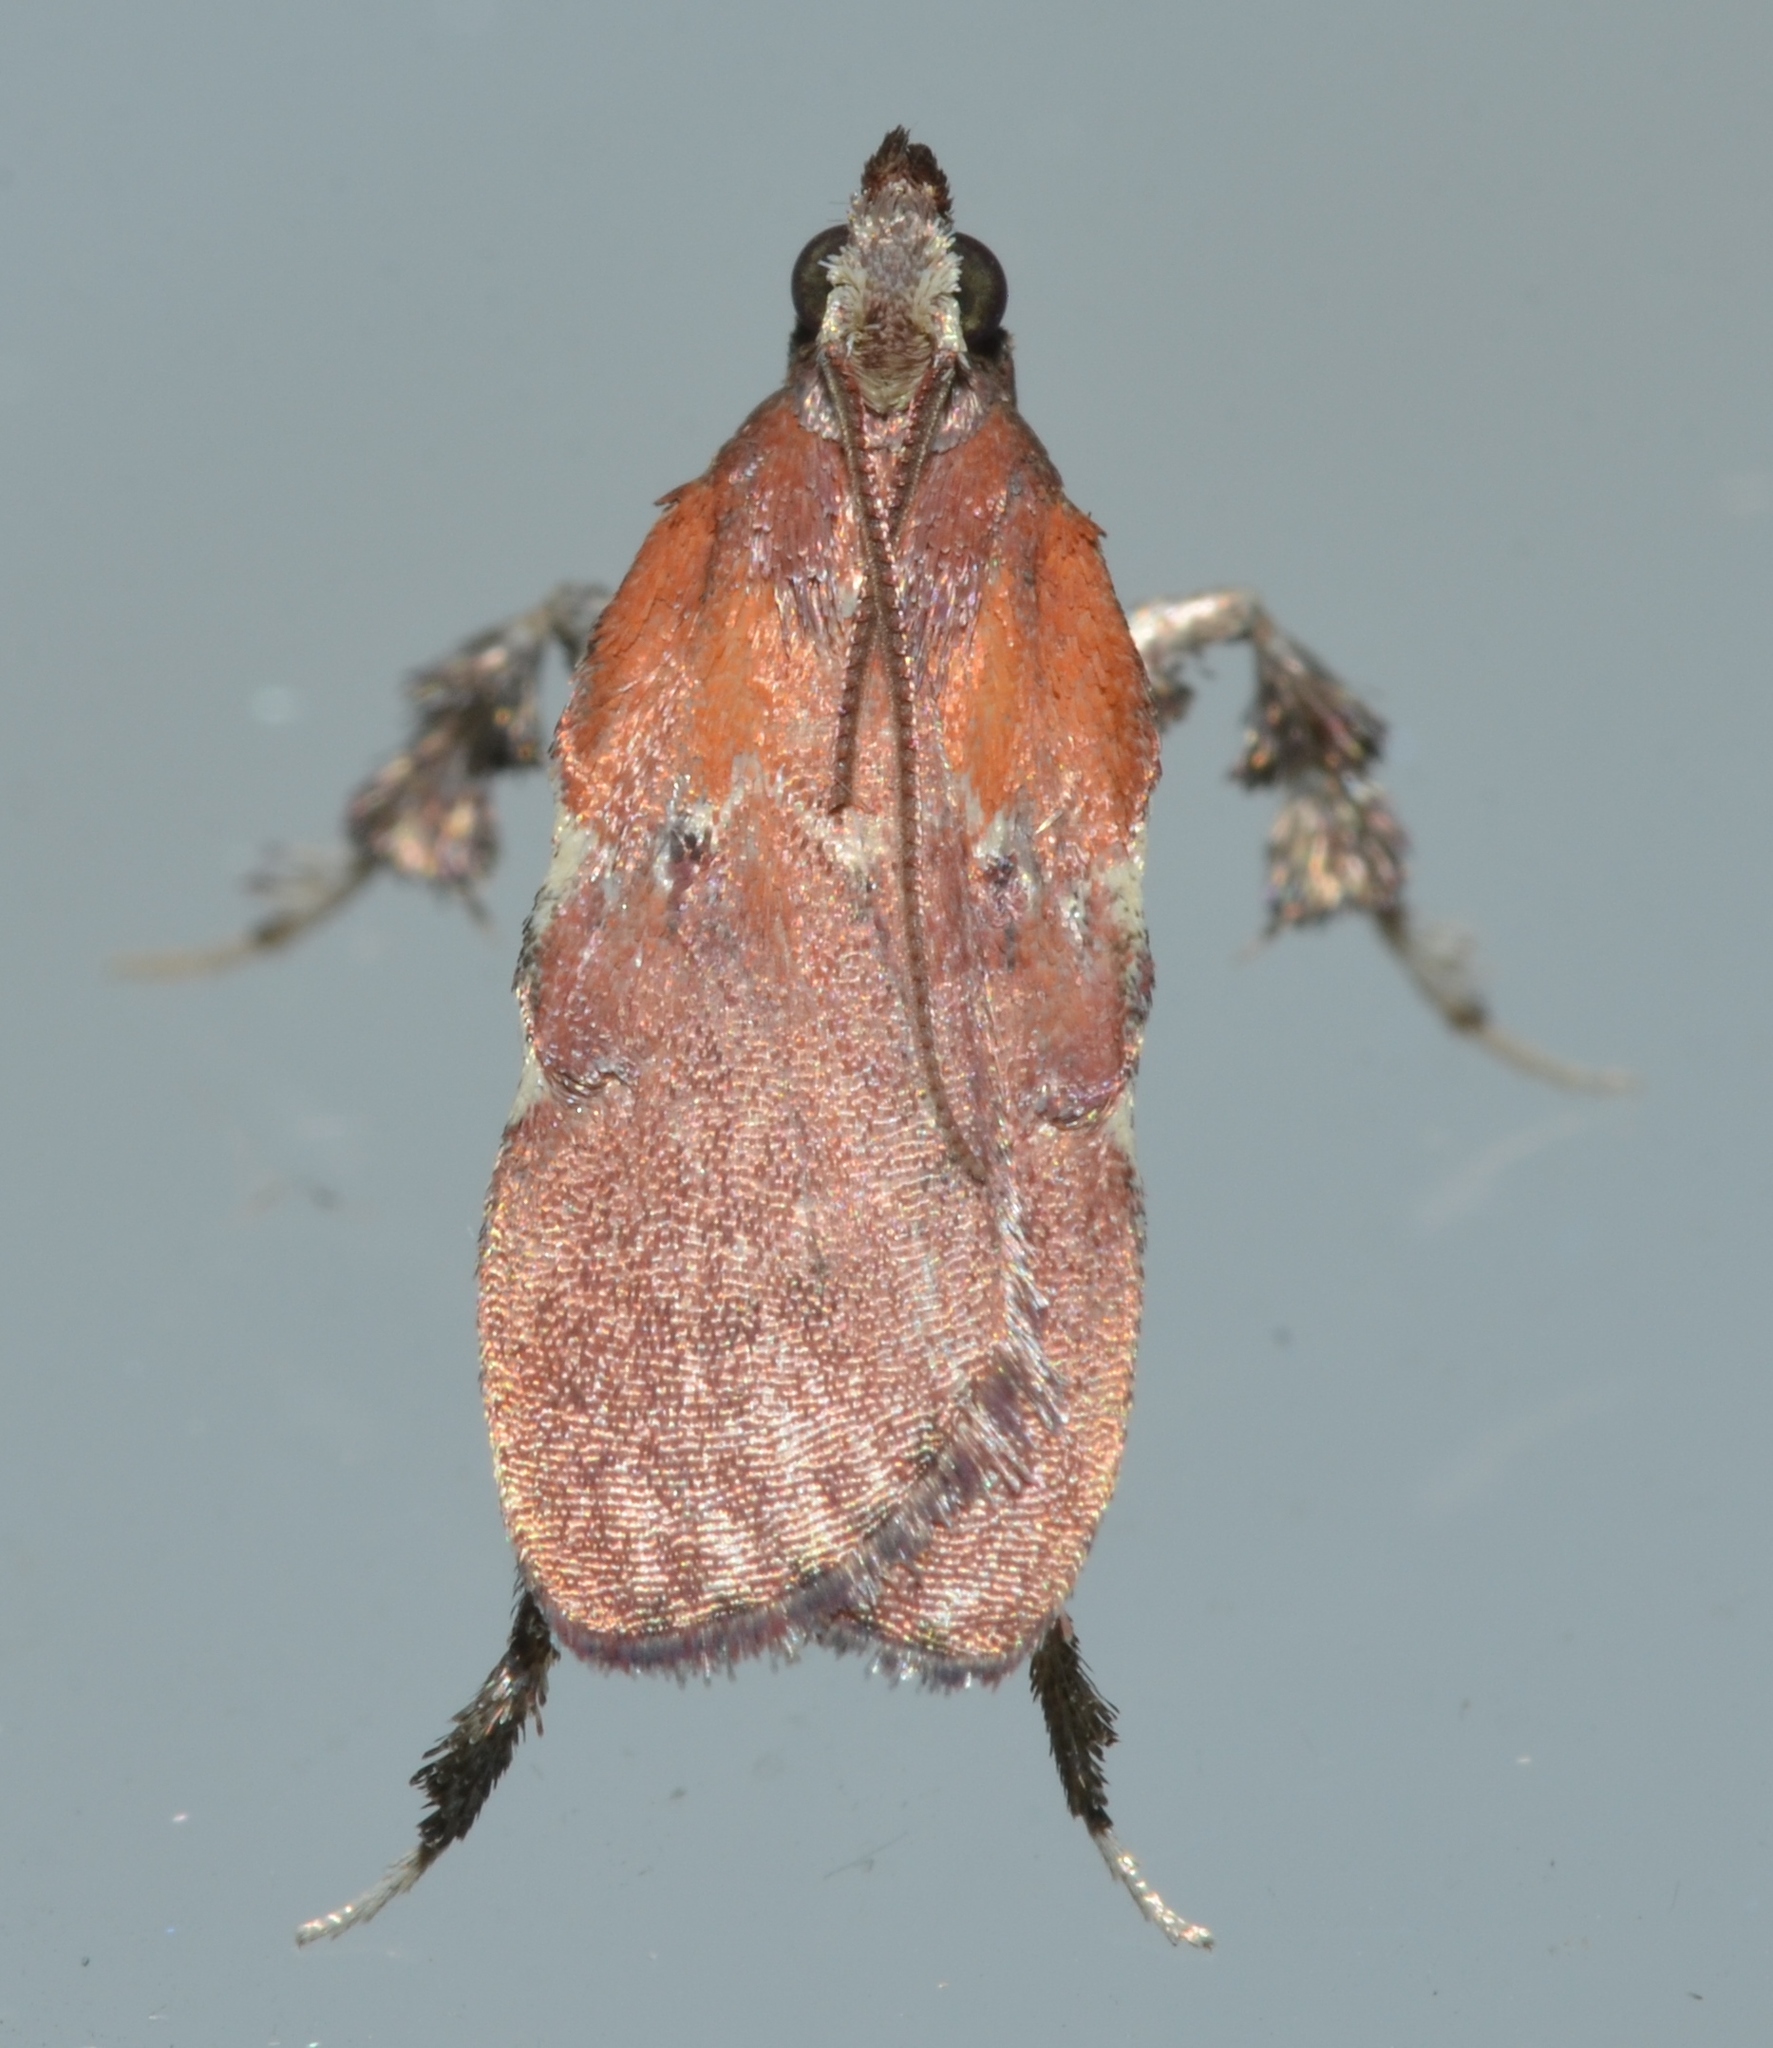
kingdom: Animalia
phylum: Arthropoda
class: Insecta
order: Lepidoptera
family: Pyralidae
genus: Galasa
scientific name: Galasa nigrinodis
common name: Boxwood leaftier moth
